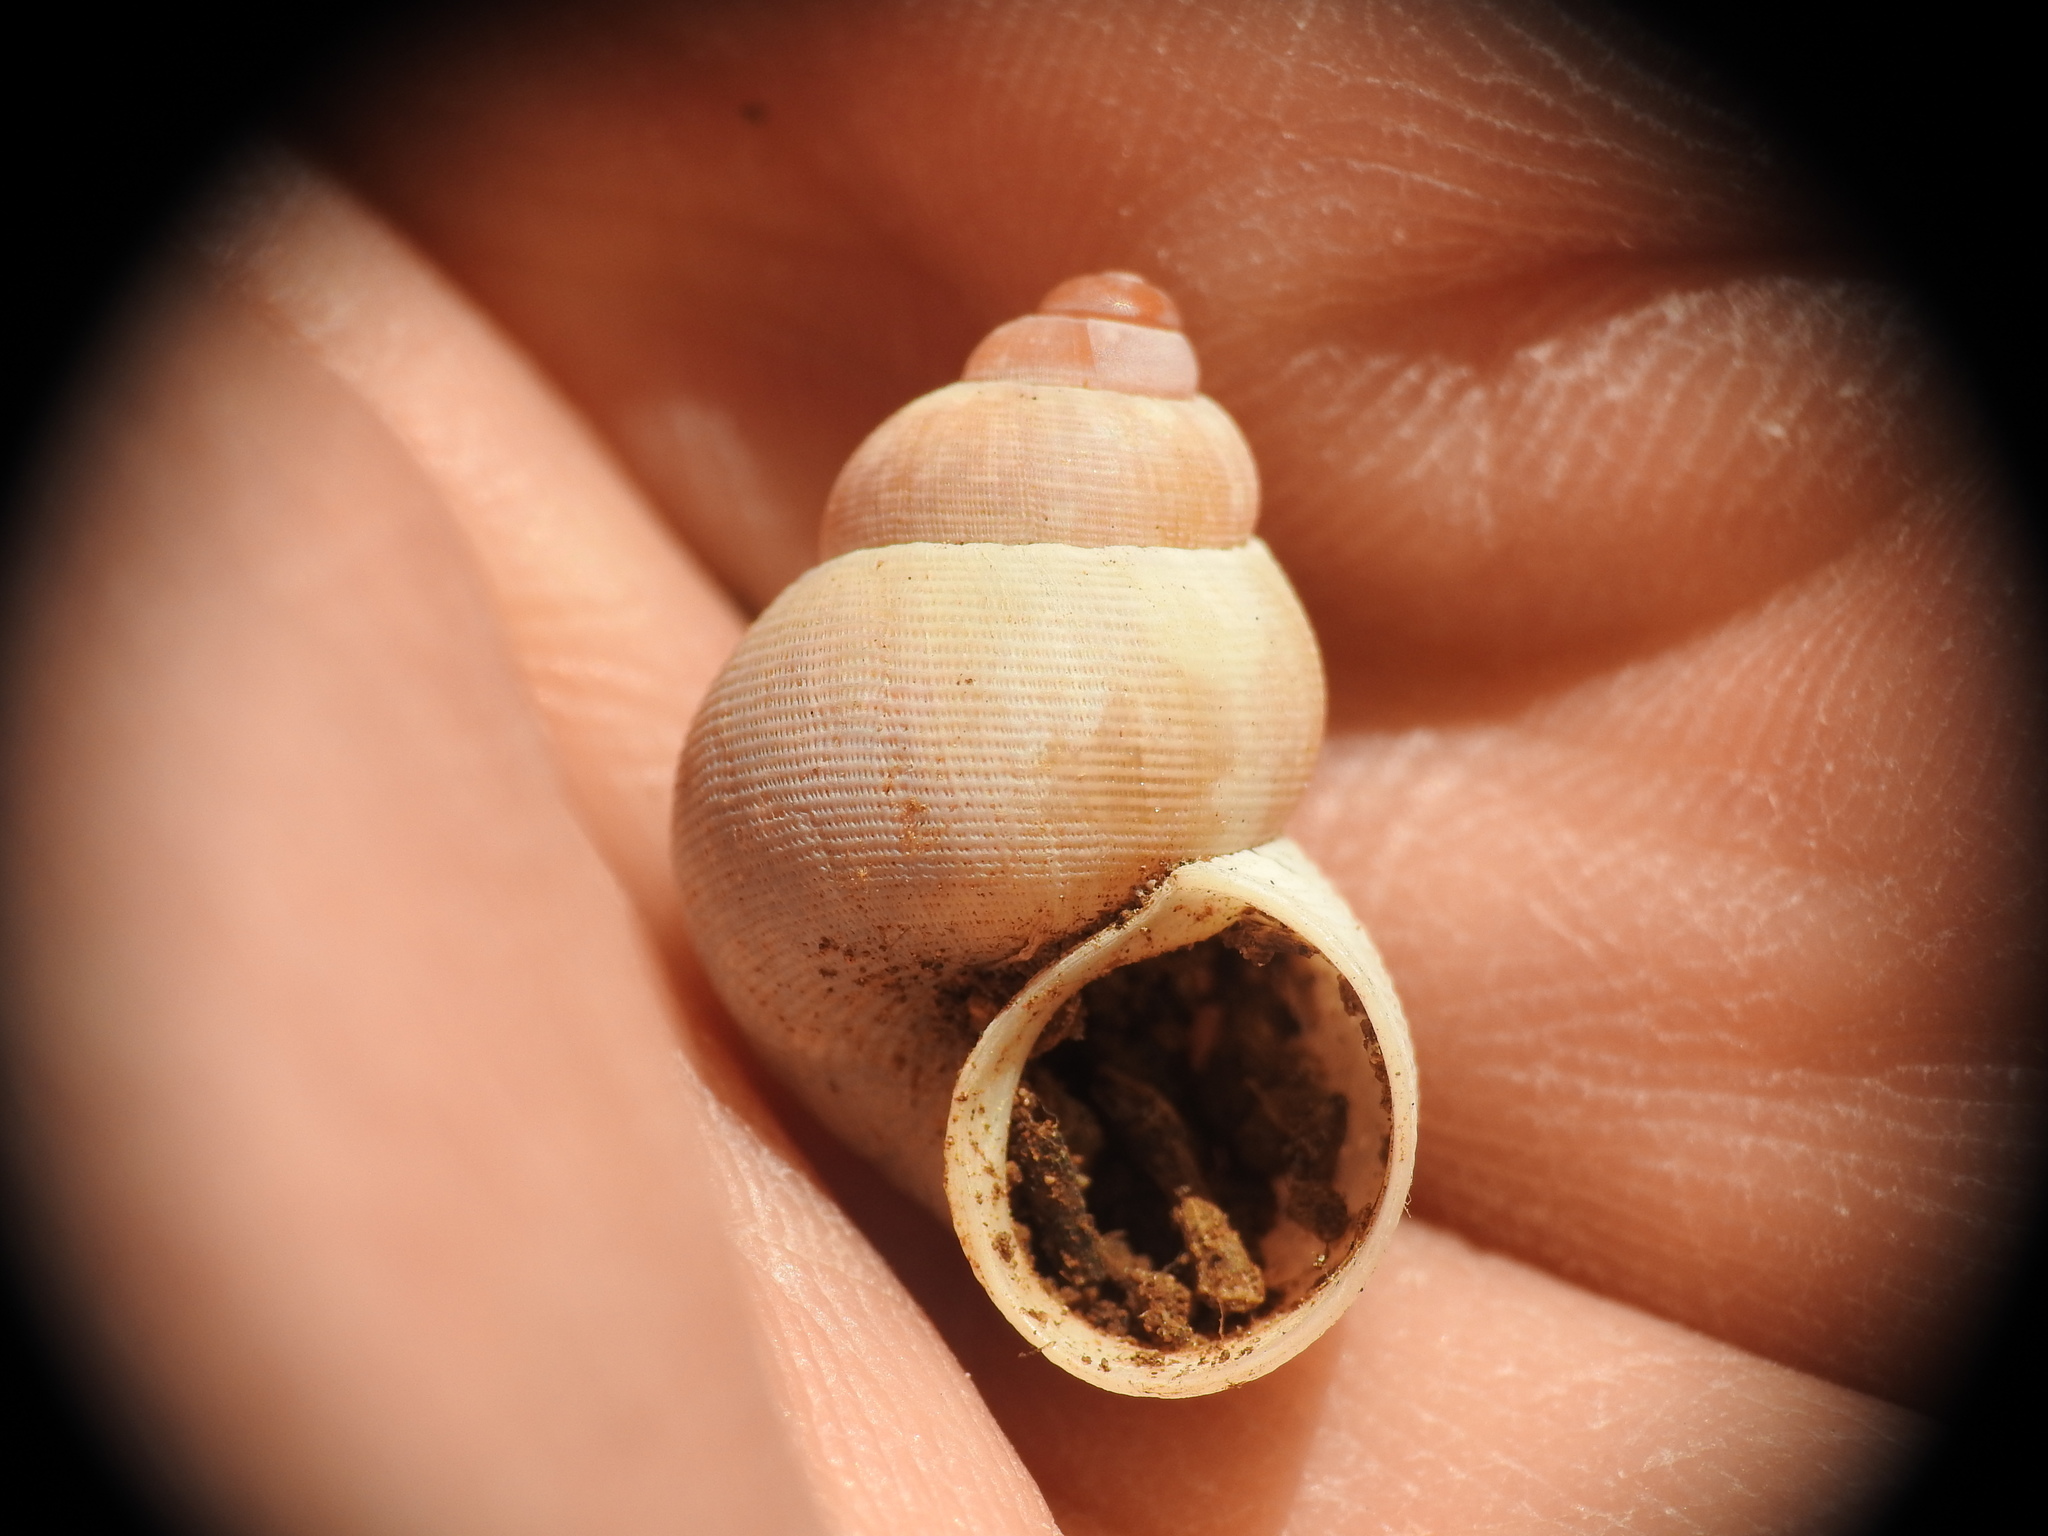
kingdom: Animalia
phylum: Mollusca
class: Gastropoda
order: Littorinimorpha
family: Pomatiidae
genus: Pomatias
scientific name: Pomatias elegans
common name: Red-mouthed snail
